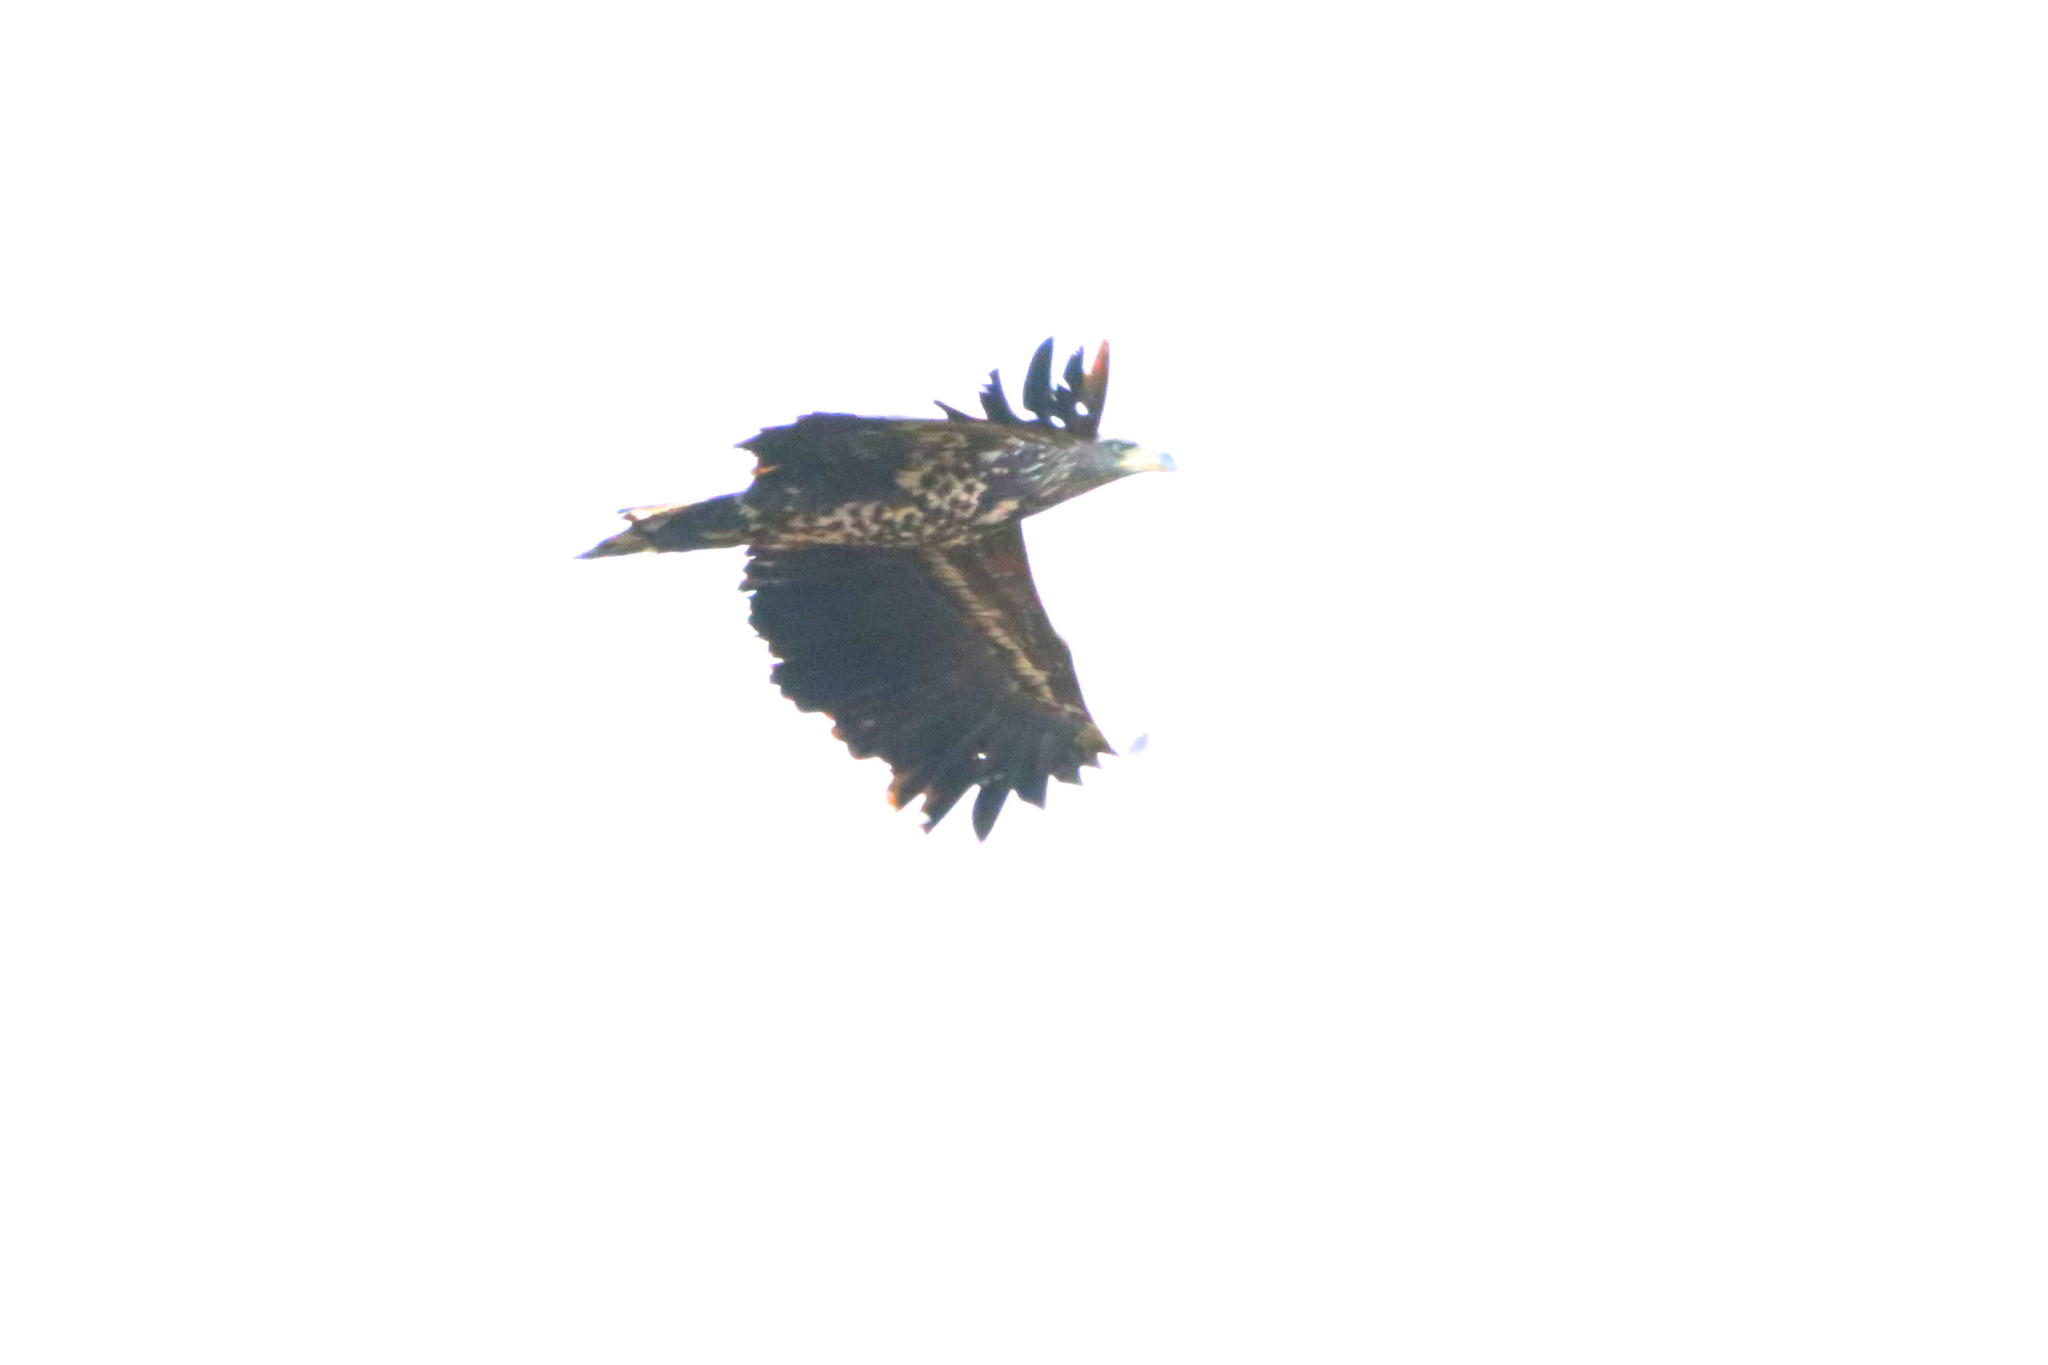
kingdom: Animalia
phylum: Chordata
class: Aves
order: Accipitriformes
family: Accipitridae
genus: Haliaeetus
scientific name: Haliaeetus albicilla
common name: White-tailed eagle
